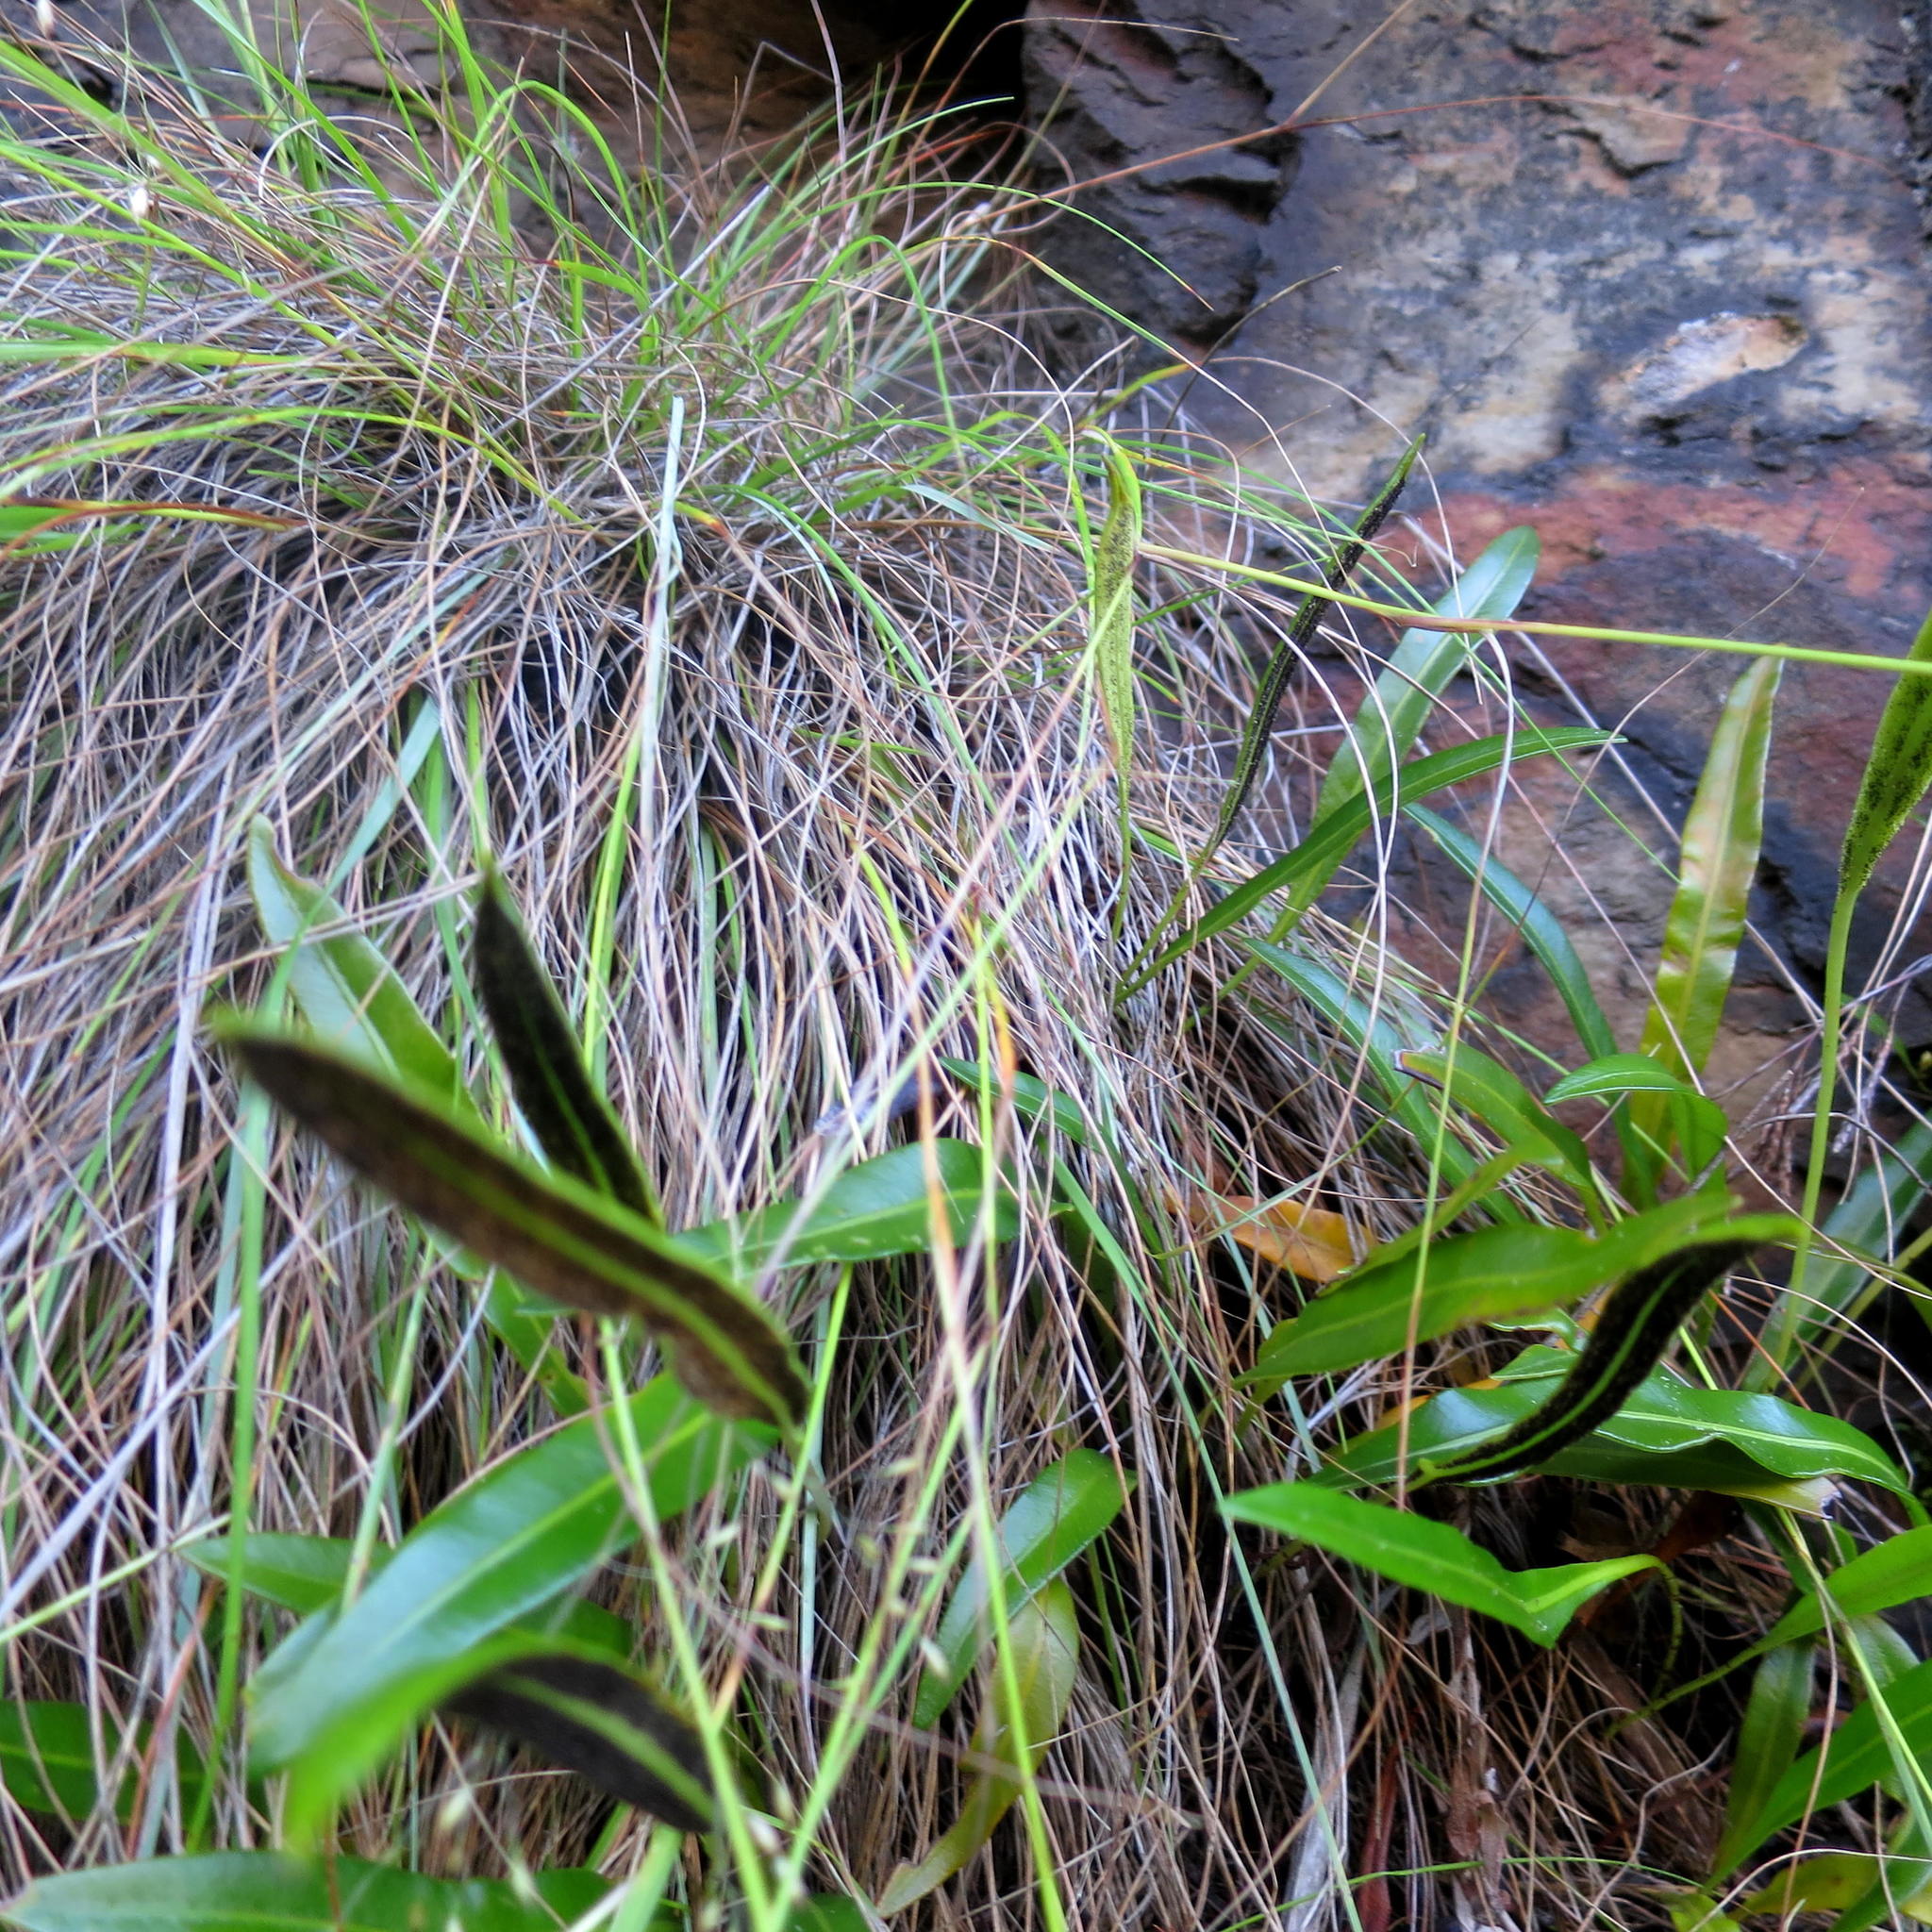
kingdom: Plantae
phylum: Tracheophyta
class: Polypodiopsida
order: Polypodiales
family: Dryopteridaceae
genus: Elaphoglossum
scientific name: Elaphoglossum acrostichoides
